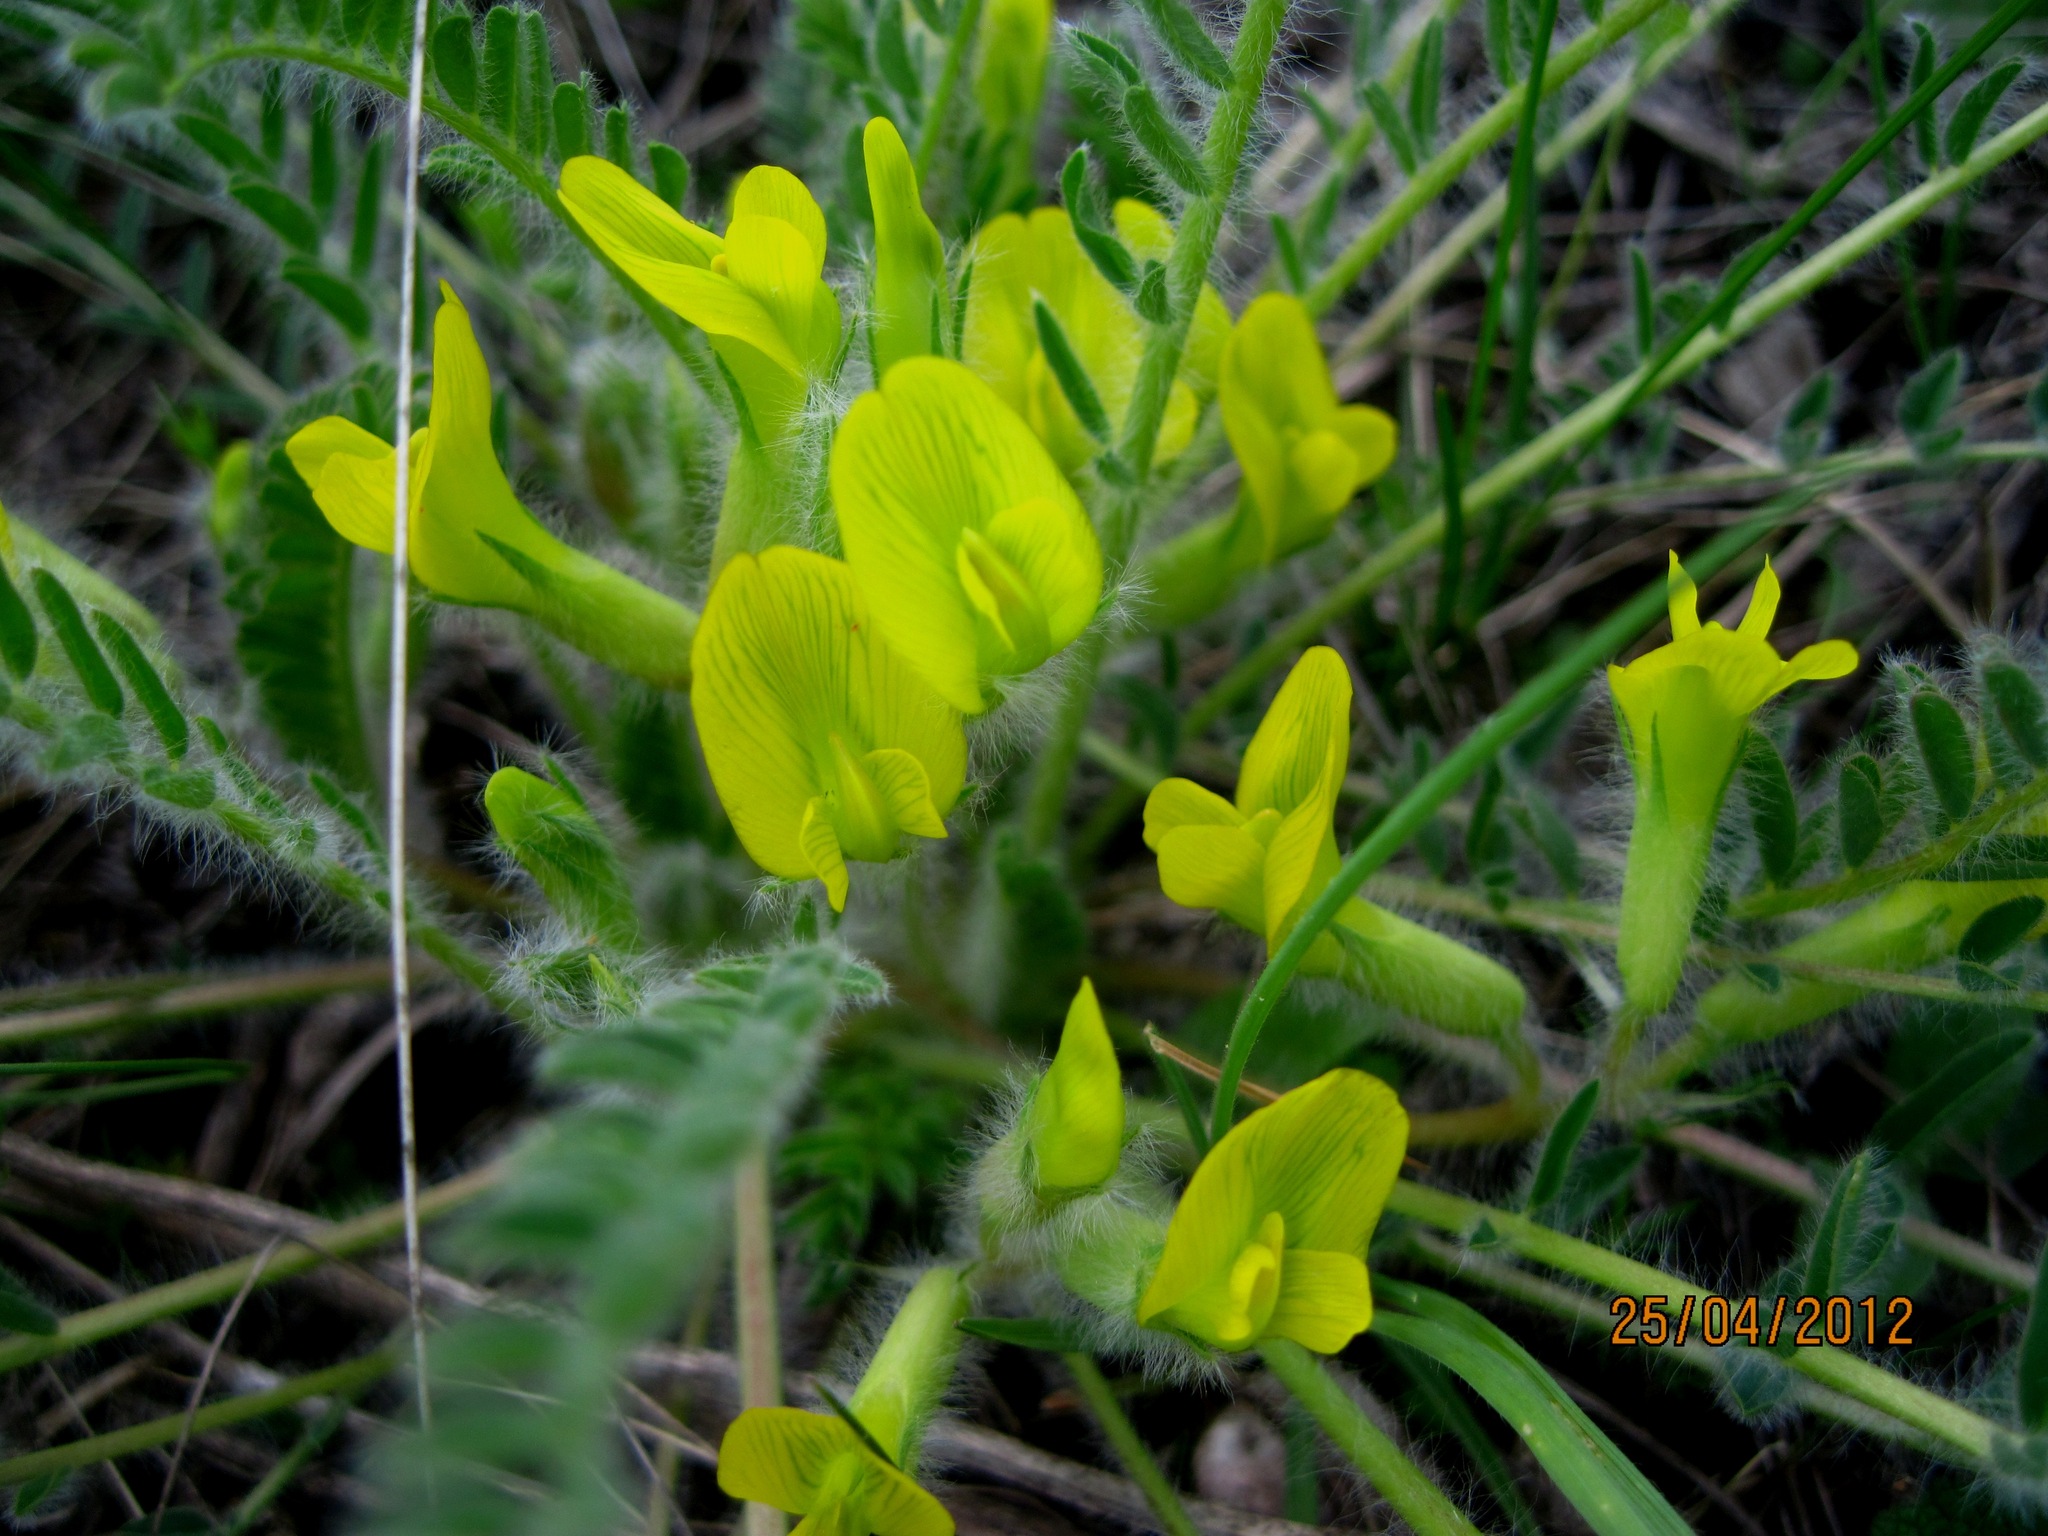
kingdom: Plantae
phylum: Tracheophyta
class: Magnoliopsida
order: Fabales
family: Fabaceae
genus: Astragalus
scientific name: Astragalus buchtormensis
